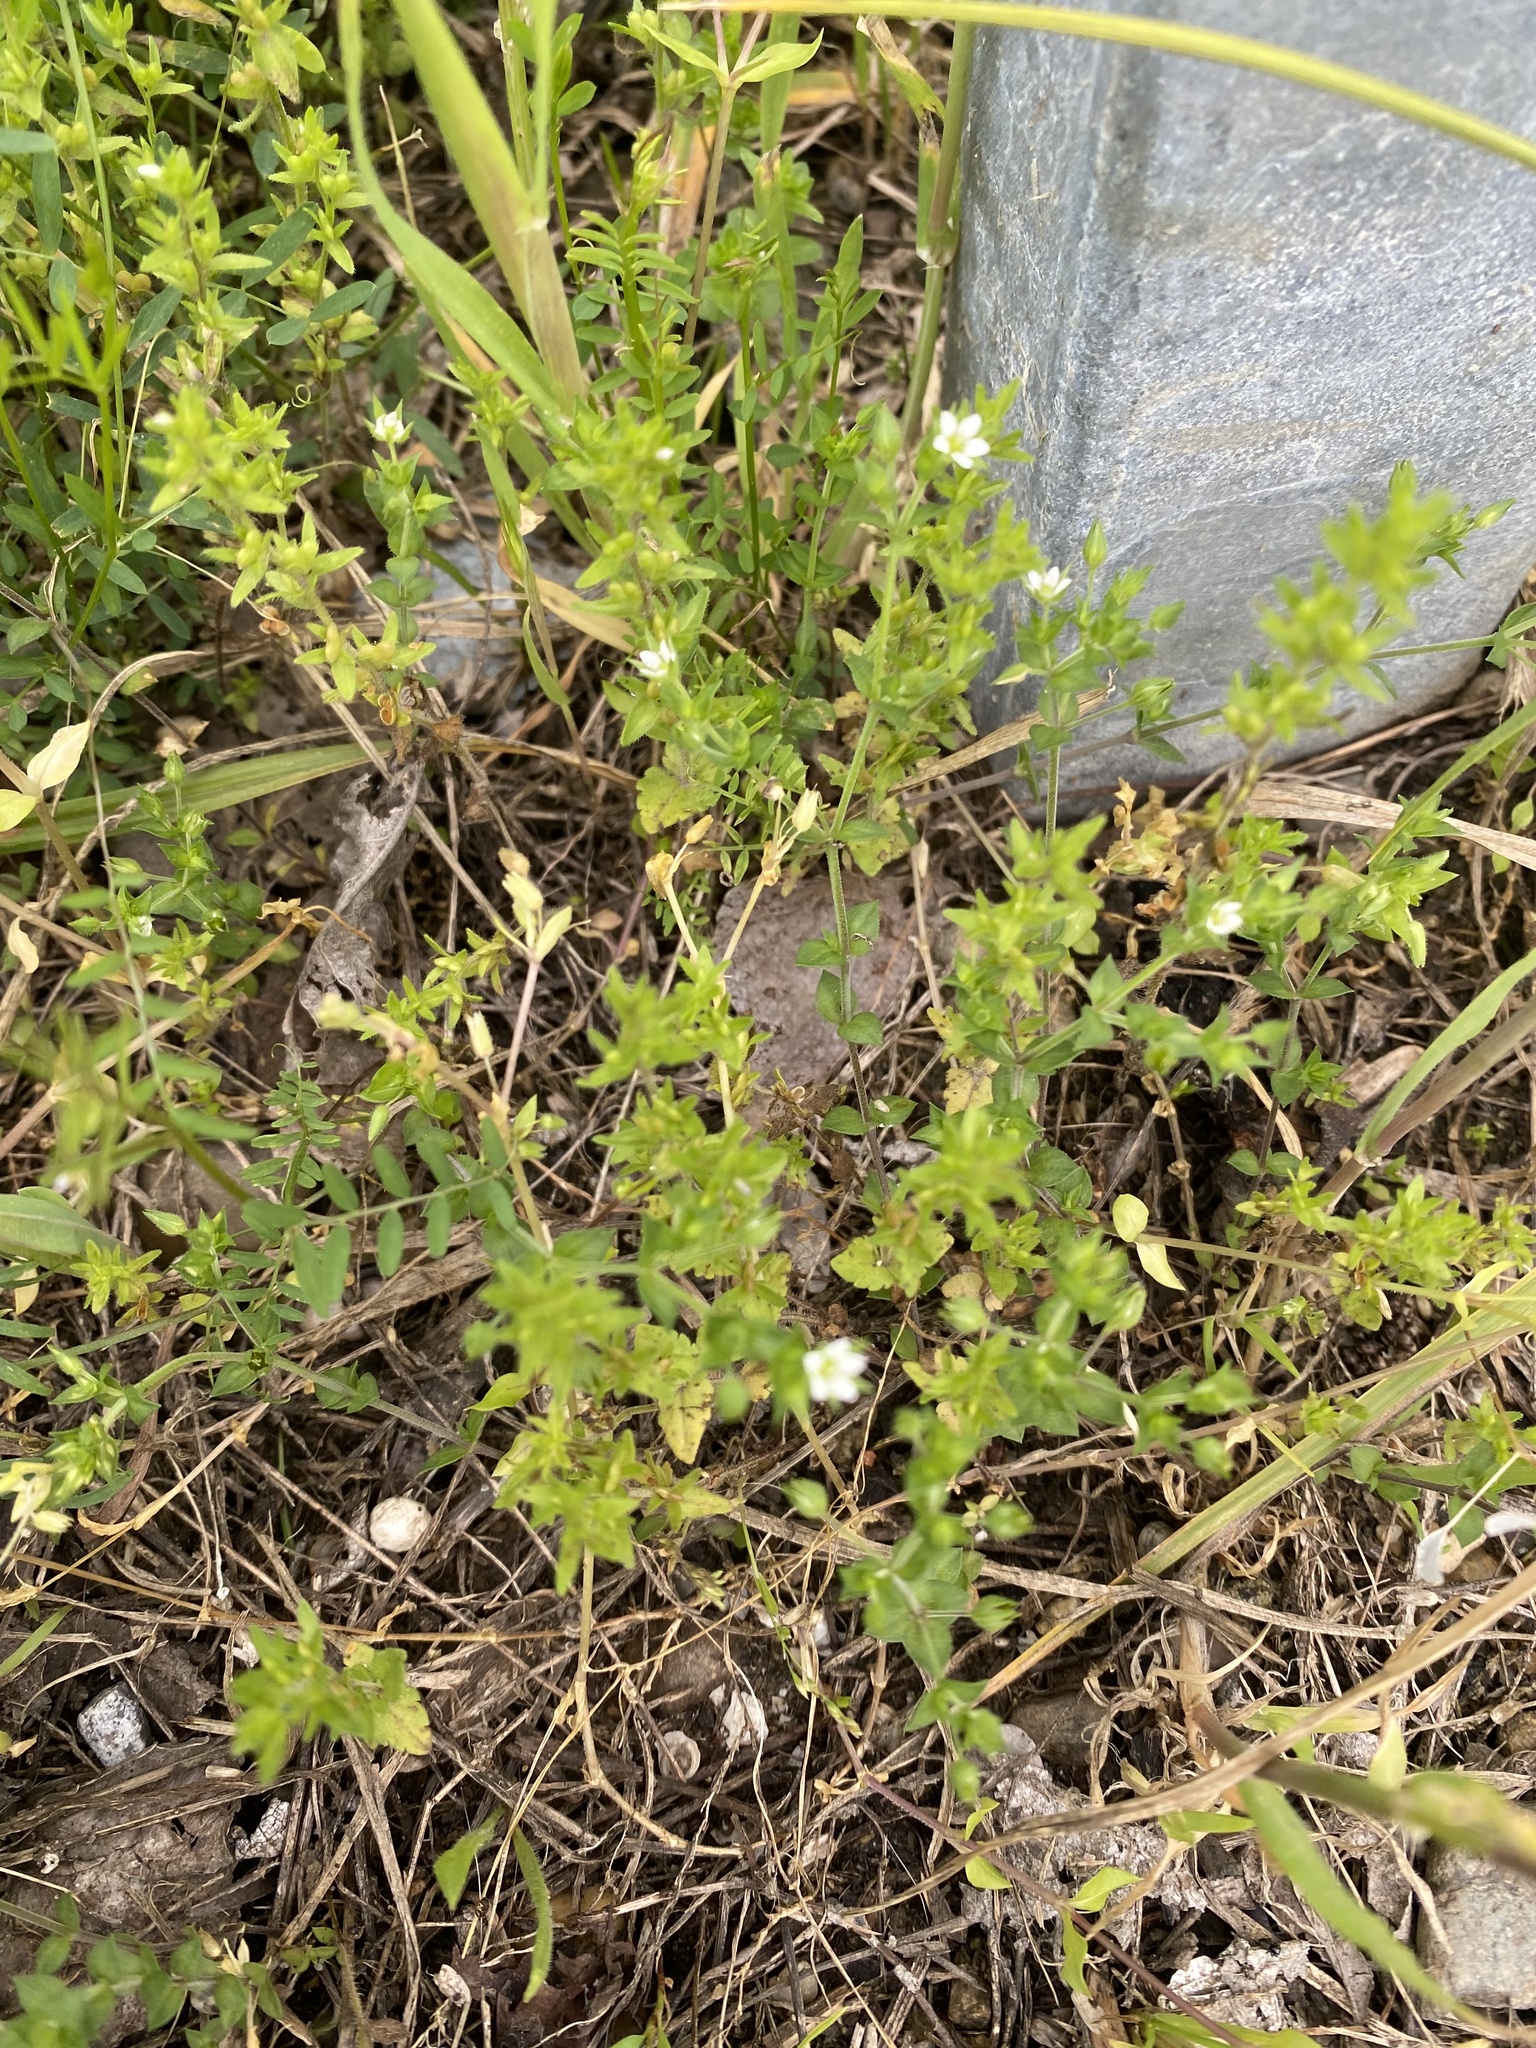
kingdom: Plantae
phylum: Tracheophyta
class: Magnoliopsida
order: Caryophyllales
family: Caryophyllaceae
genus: Arenaria
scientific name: Arenaria serpyllifolia
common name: Thyme-leaved sandwort
